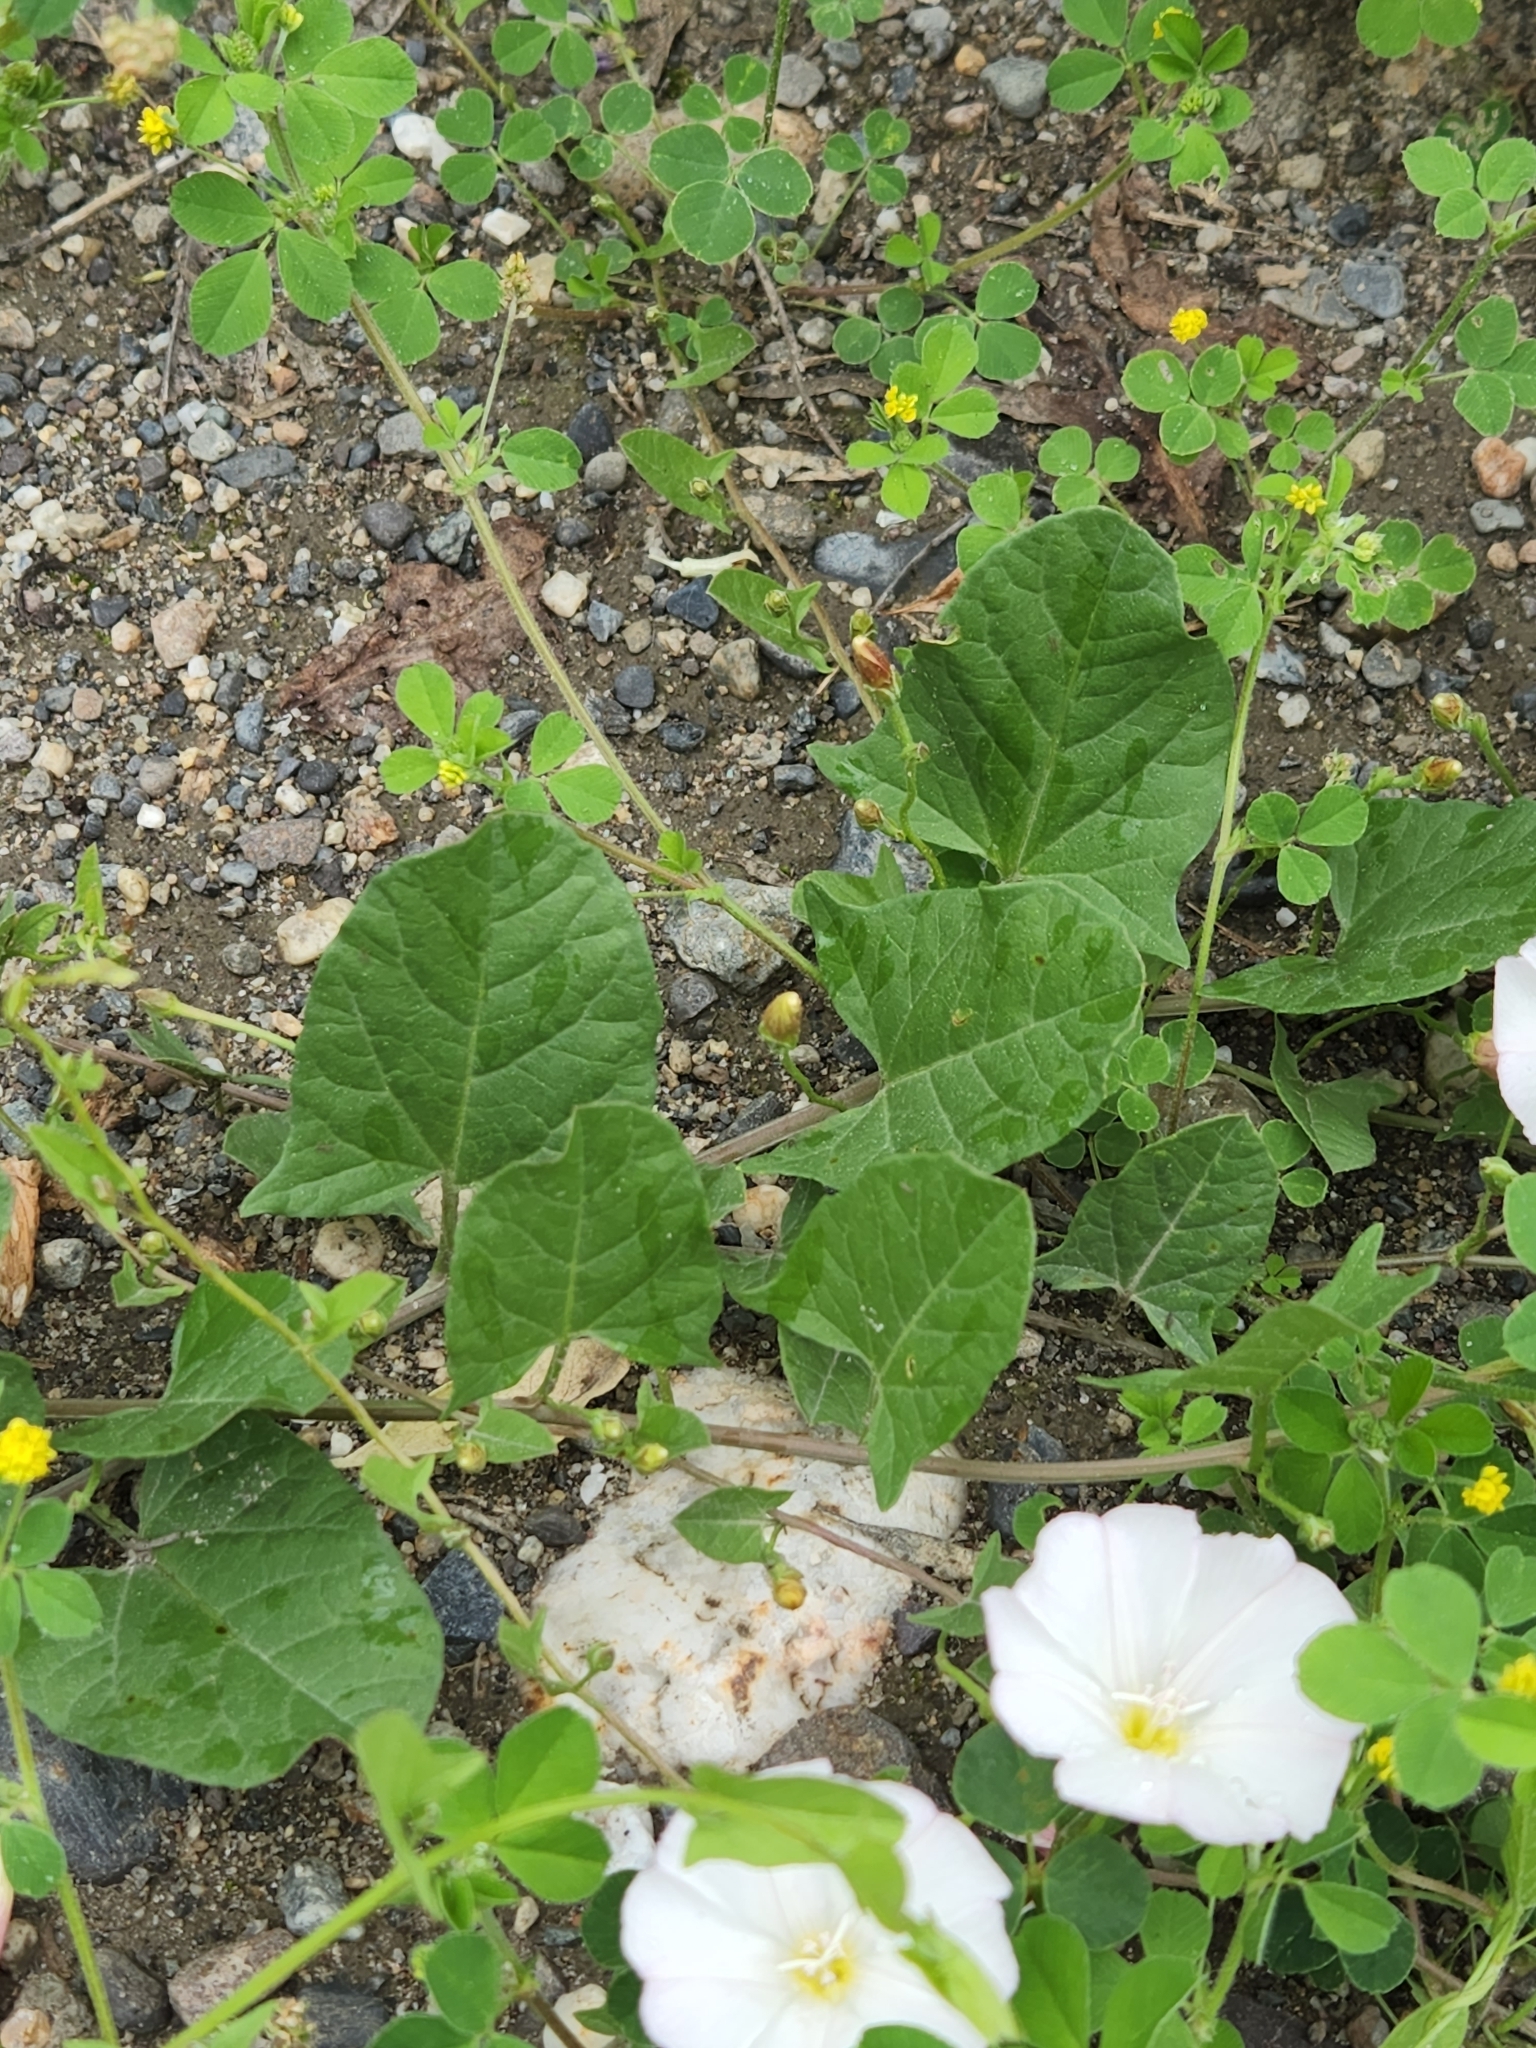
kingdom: Plantae
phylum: Tracheophyta
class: Magnoliopsida
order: Solanales
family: Convolvulaceae
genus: Convolvulus
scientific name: Convolvulus arvensis
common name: Field bindweed
